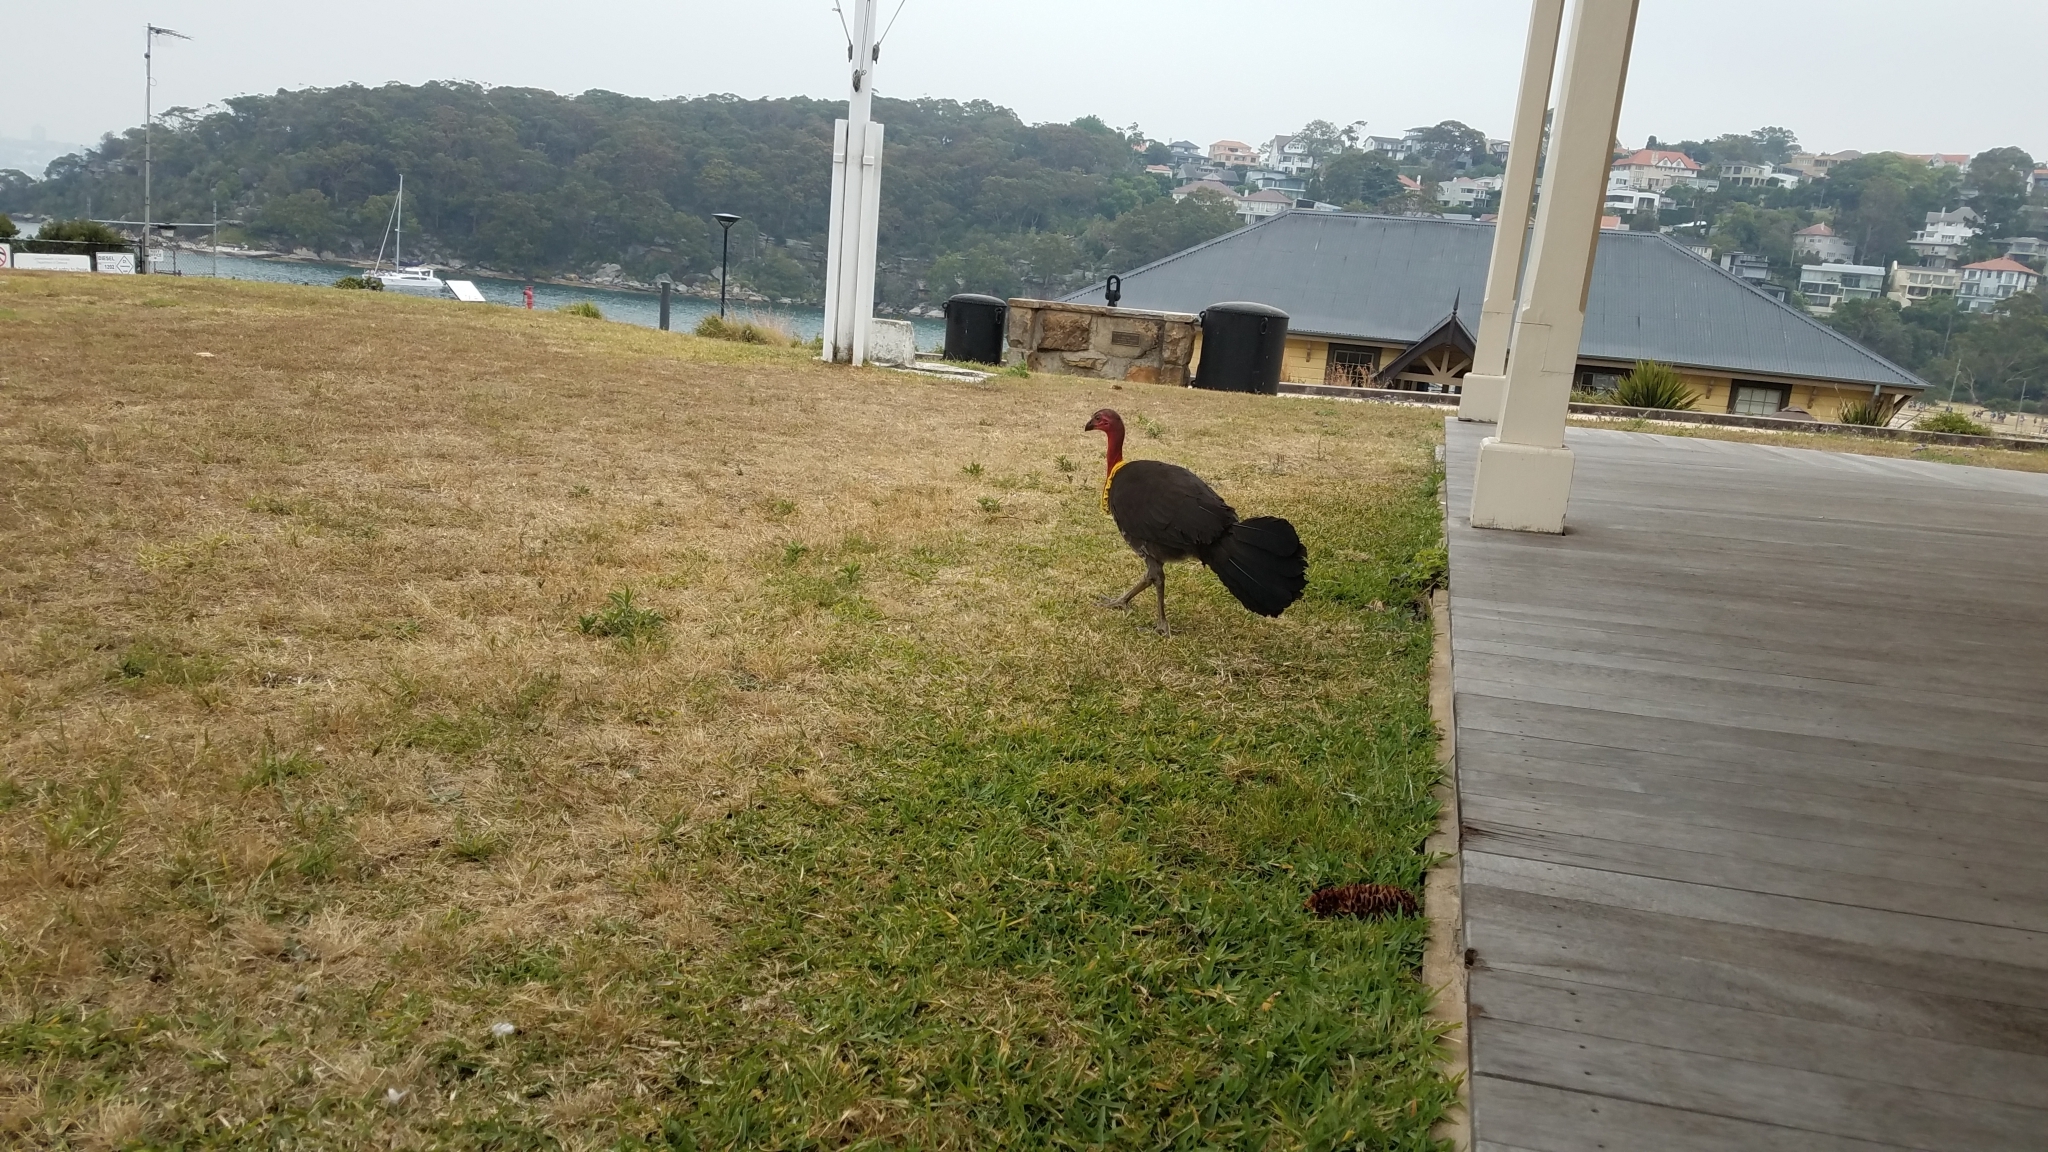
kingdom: Animalia
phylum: Chordata
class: Aves
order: Galliformes
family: Megapodiidae
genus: Alectura
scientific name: Alectura lathami
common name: Australian brushturkey
